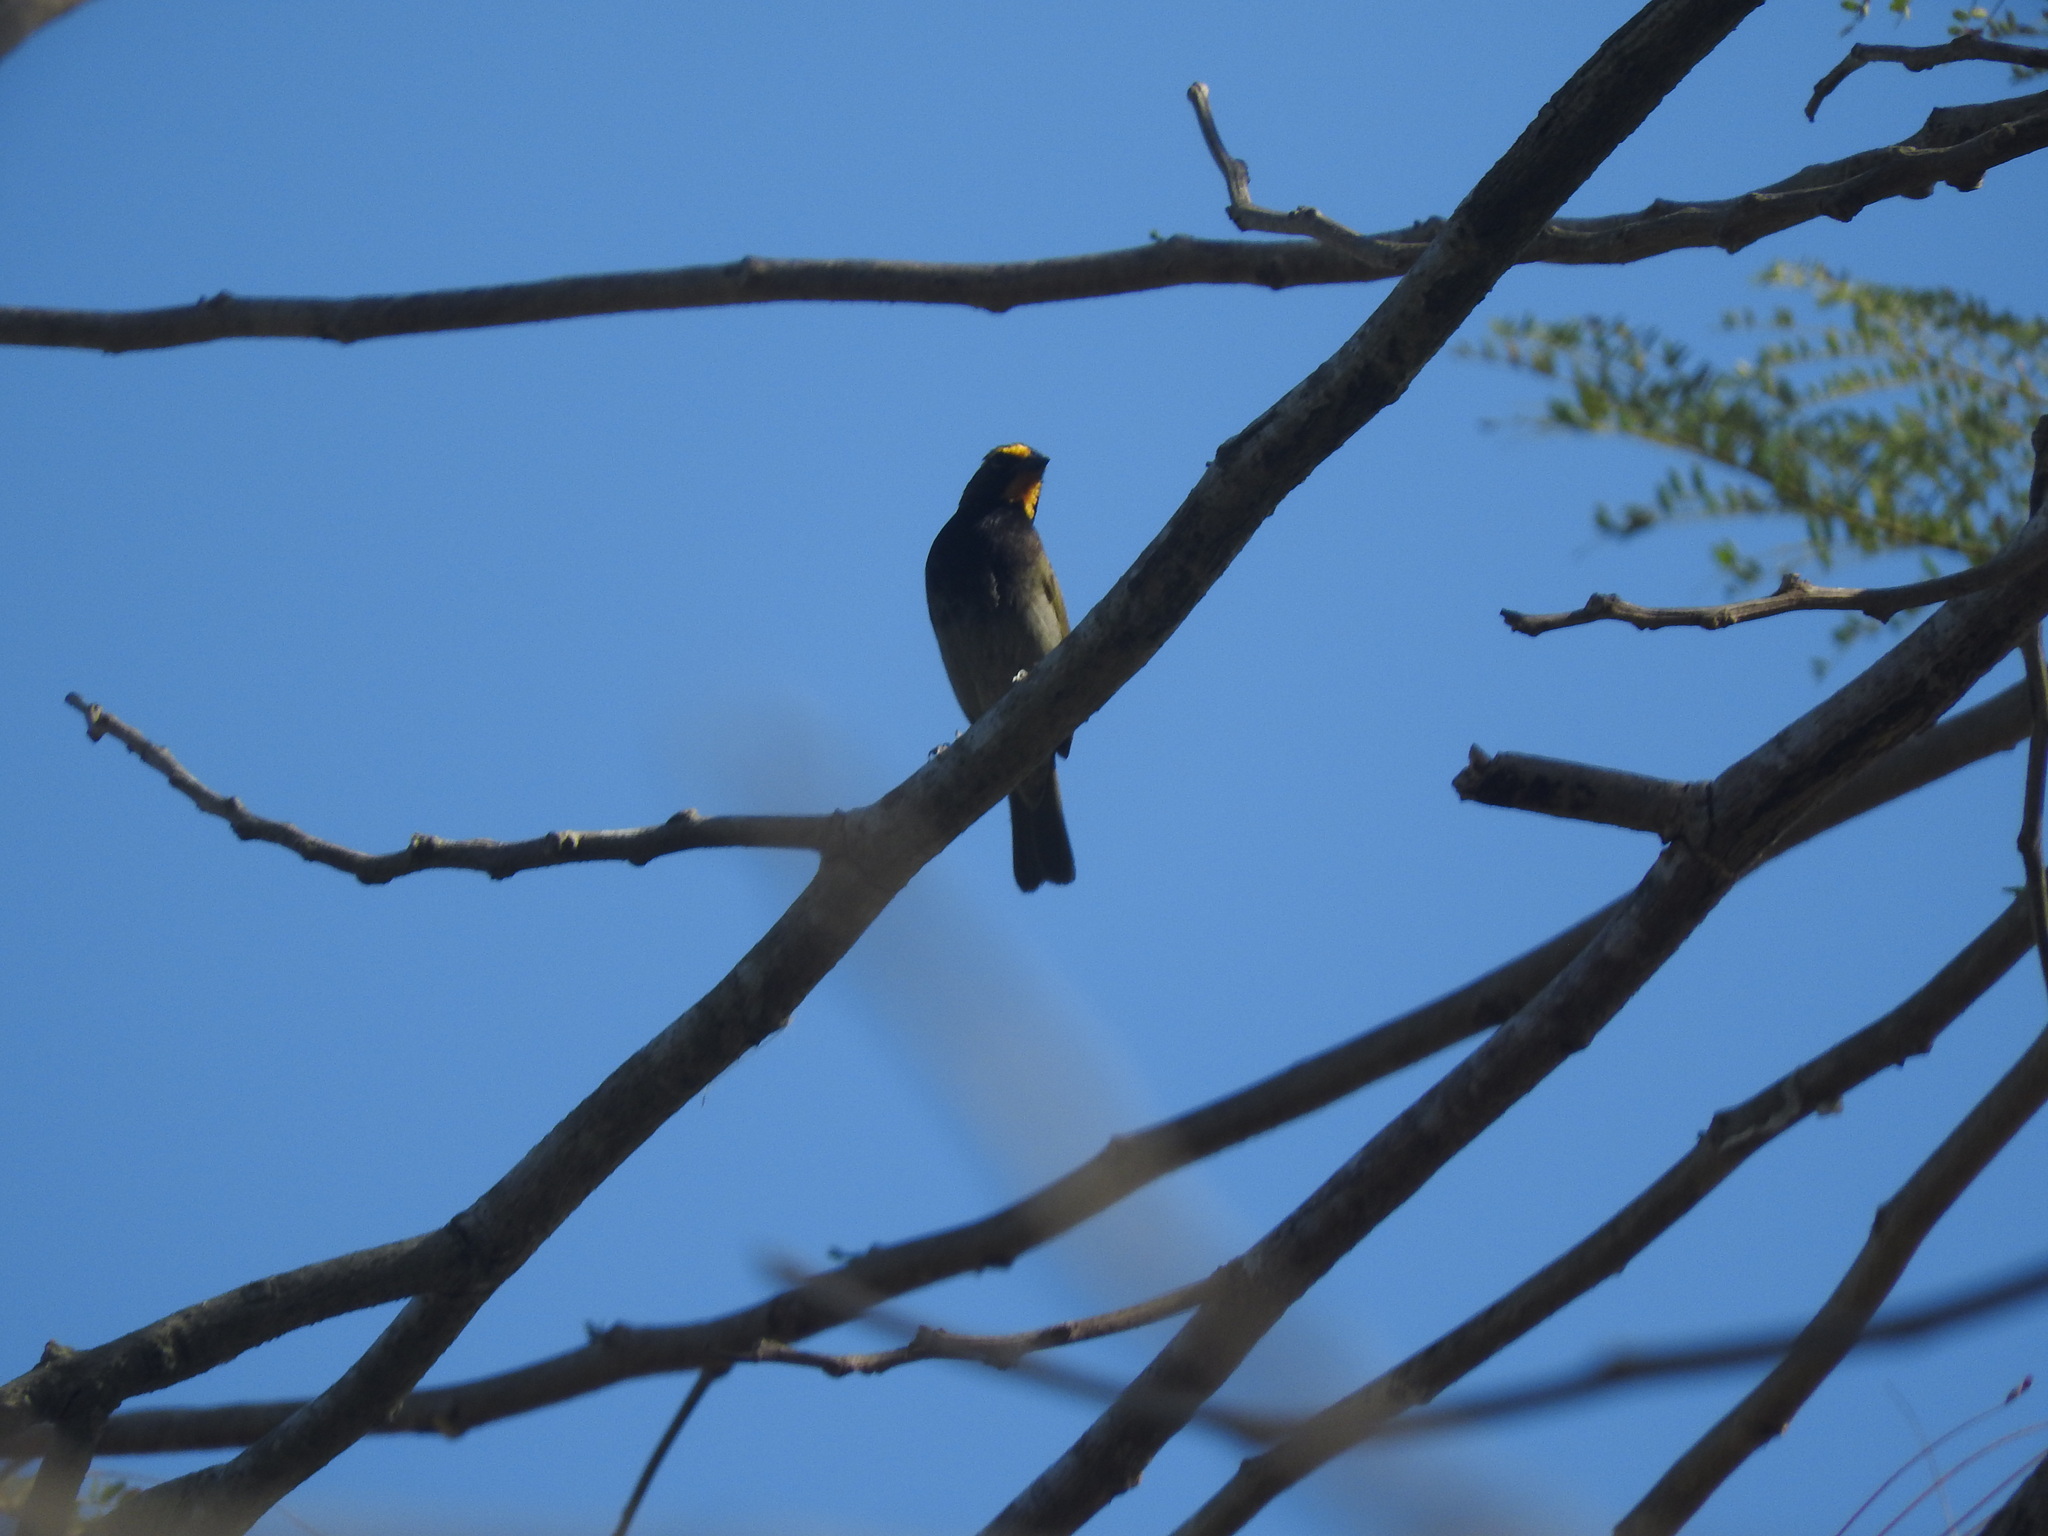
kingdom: Animalia
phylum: Chordata
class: Aves
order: Passeriformes
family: Thraupidae
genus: Tiaris
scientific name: Tiaris olivaceus
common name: Yellow-faced grassquit
